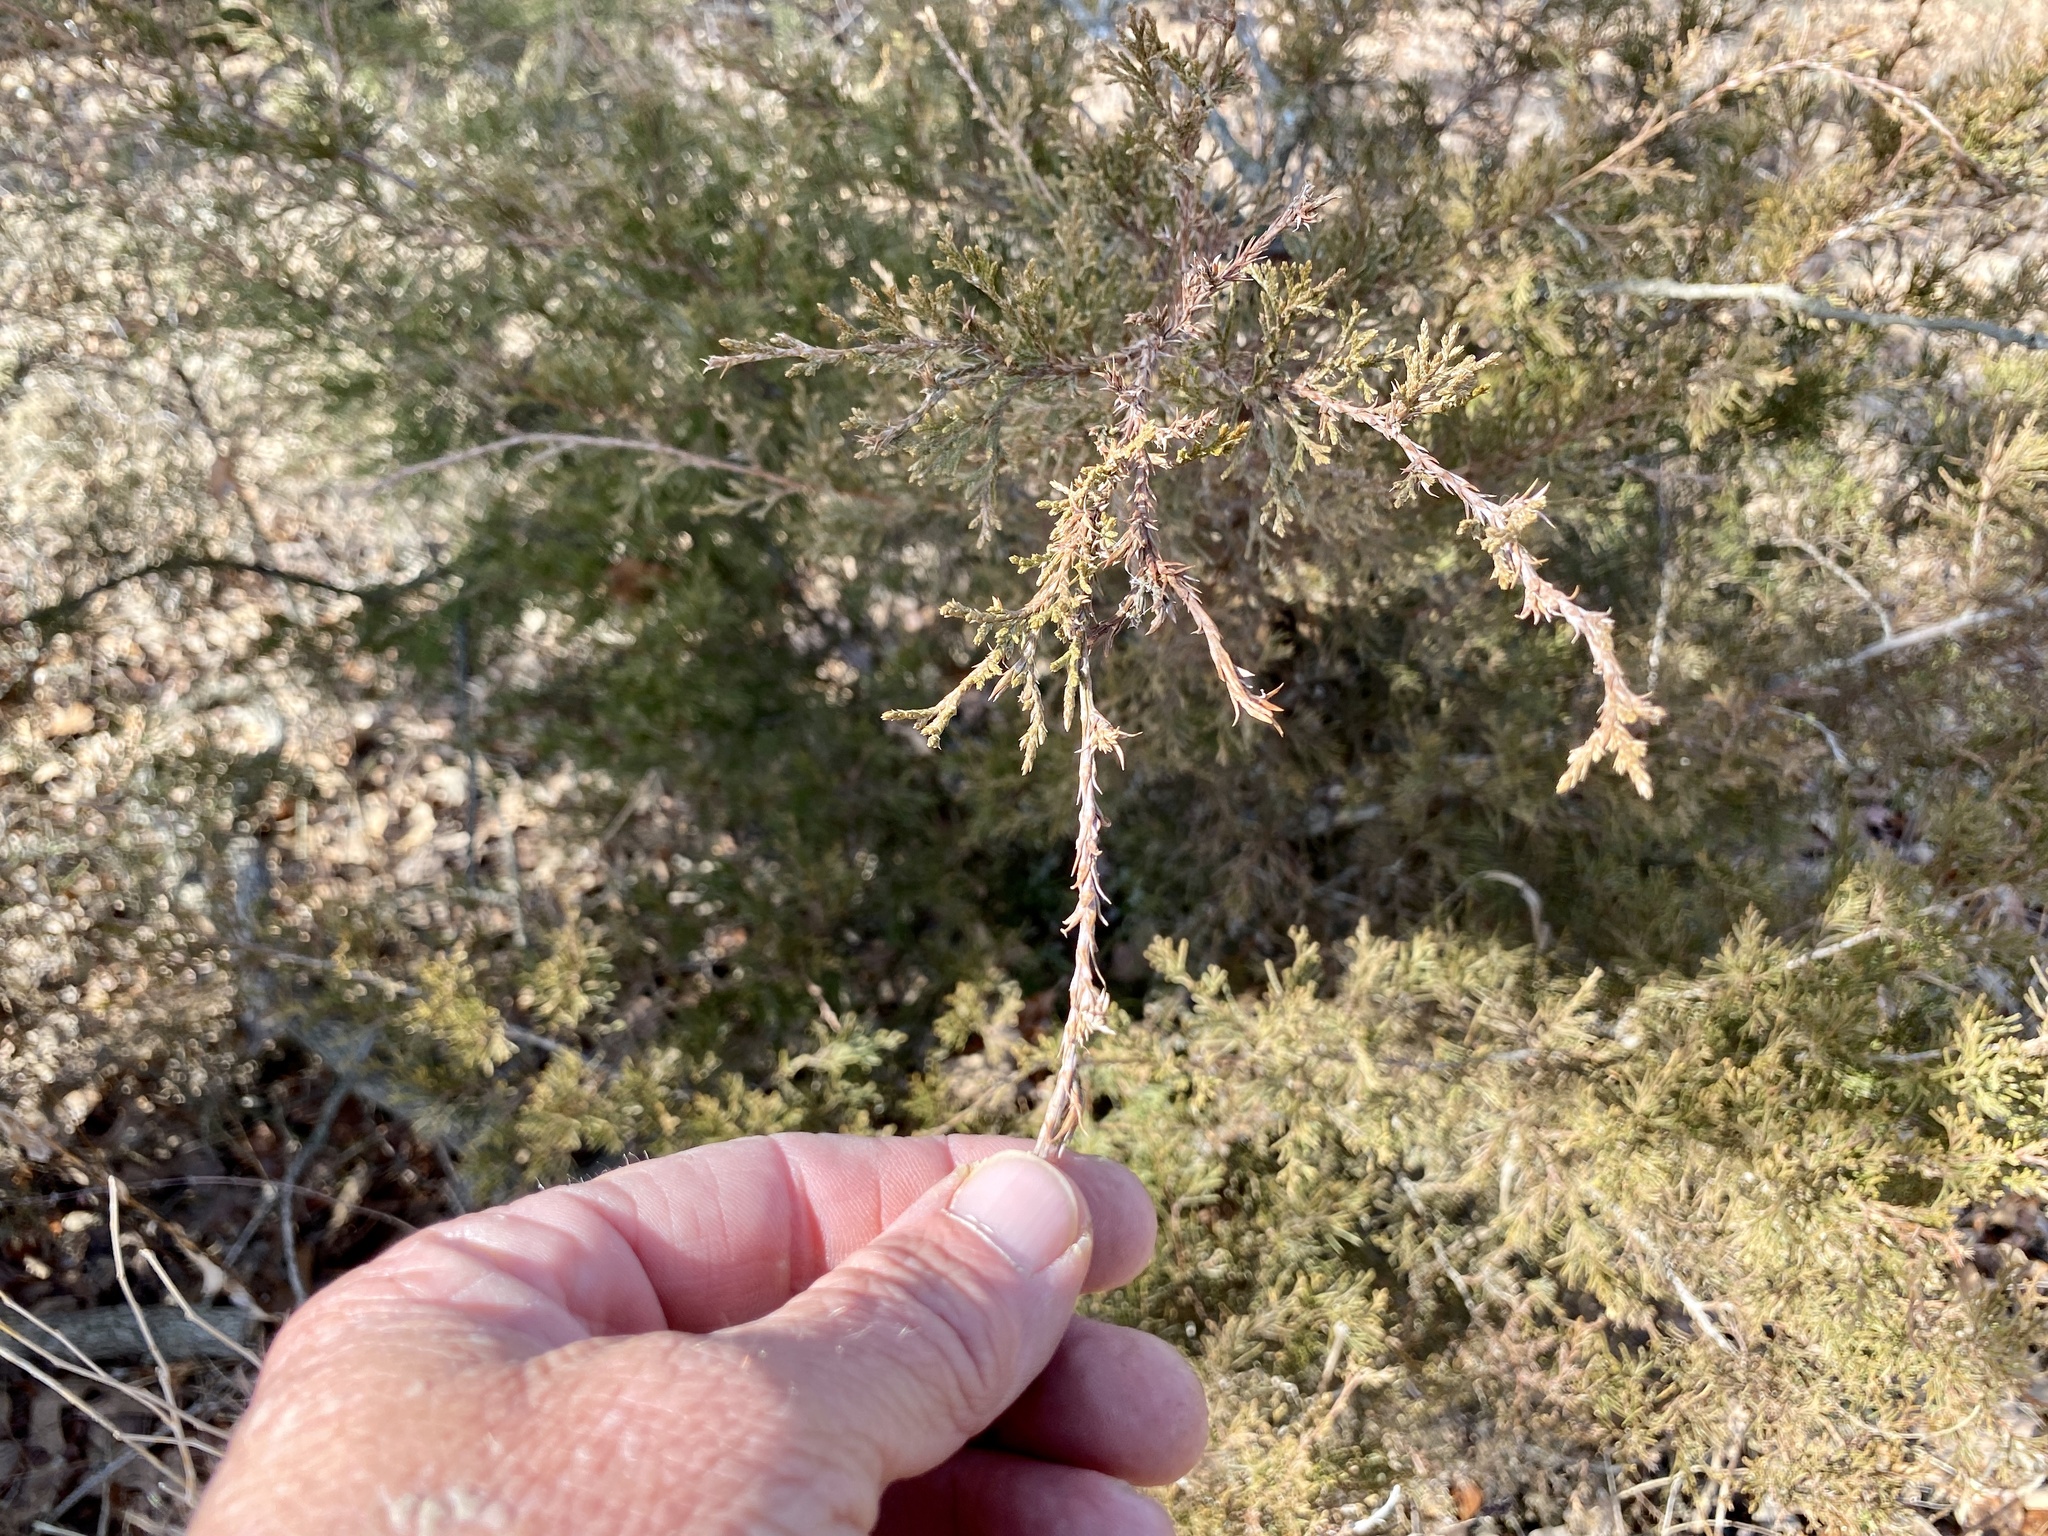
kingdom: Plantae
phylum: Tracheophyta
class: Pinopsida
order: Pinales
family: Cupressaceae
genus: Juniperus
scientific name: Juniperus virginiana
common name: Red juniper
